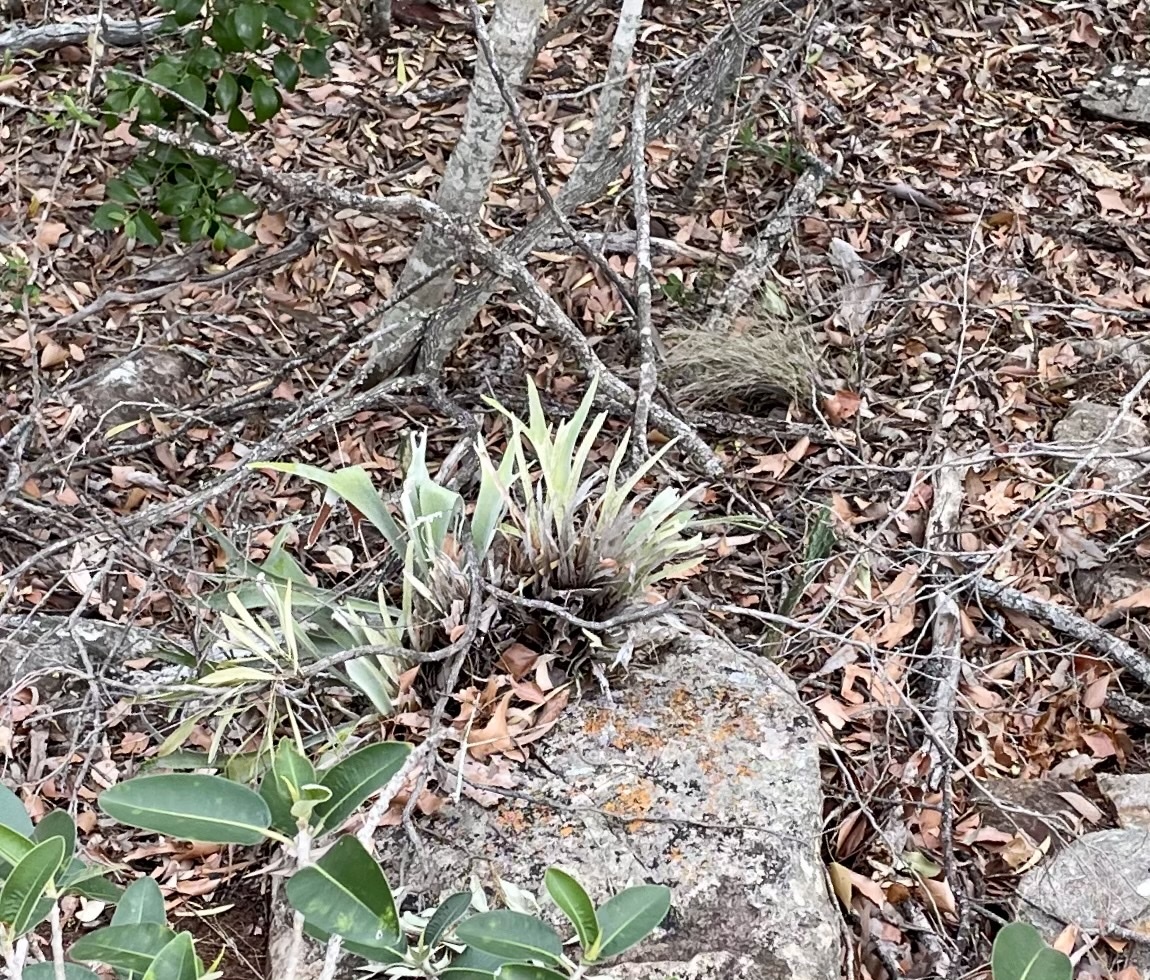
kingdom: Plantae
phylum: Tracheophyta
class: Polypodiopsida
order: Polypodiales
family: Polypodiaceae
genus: Platycerium
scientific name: Platycerium veitchii
